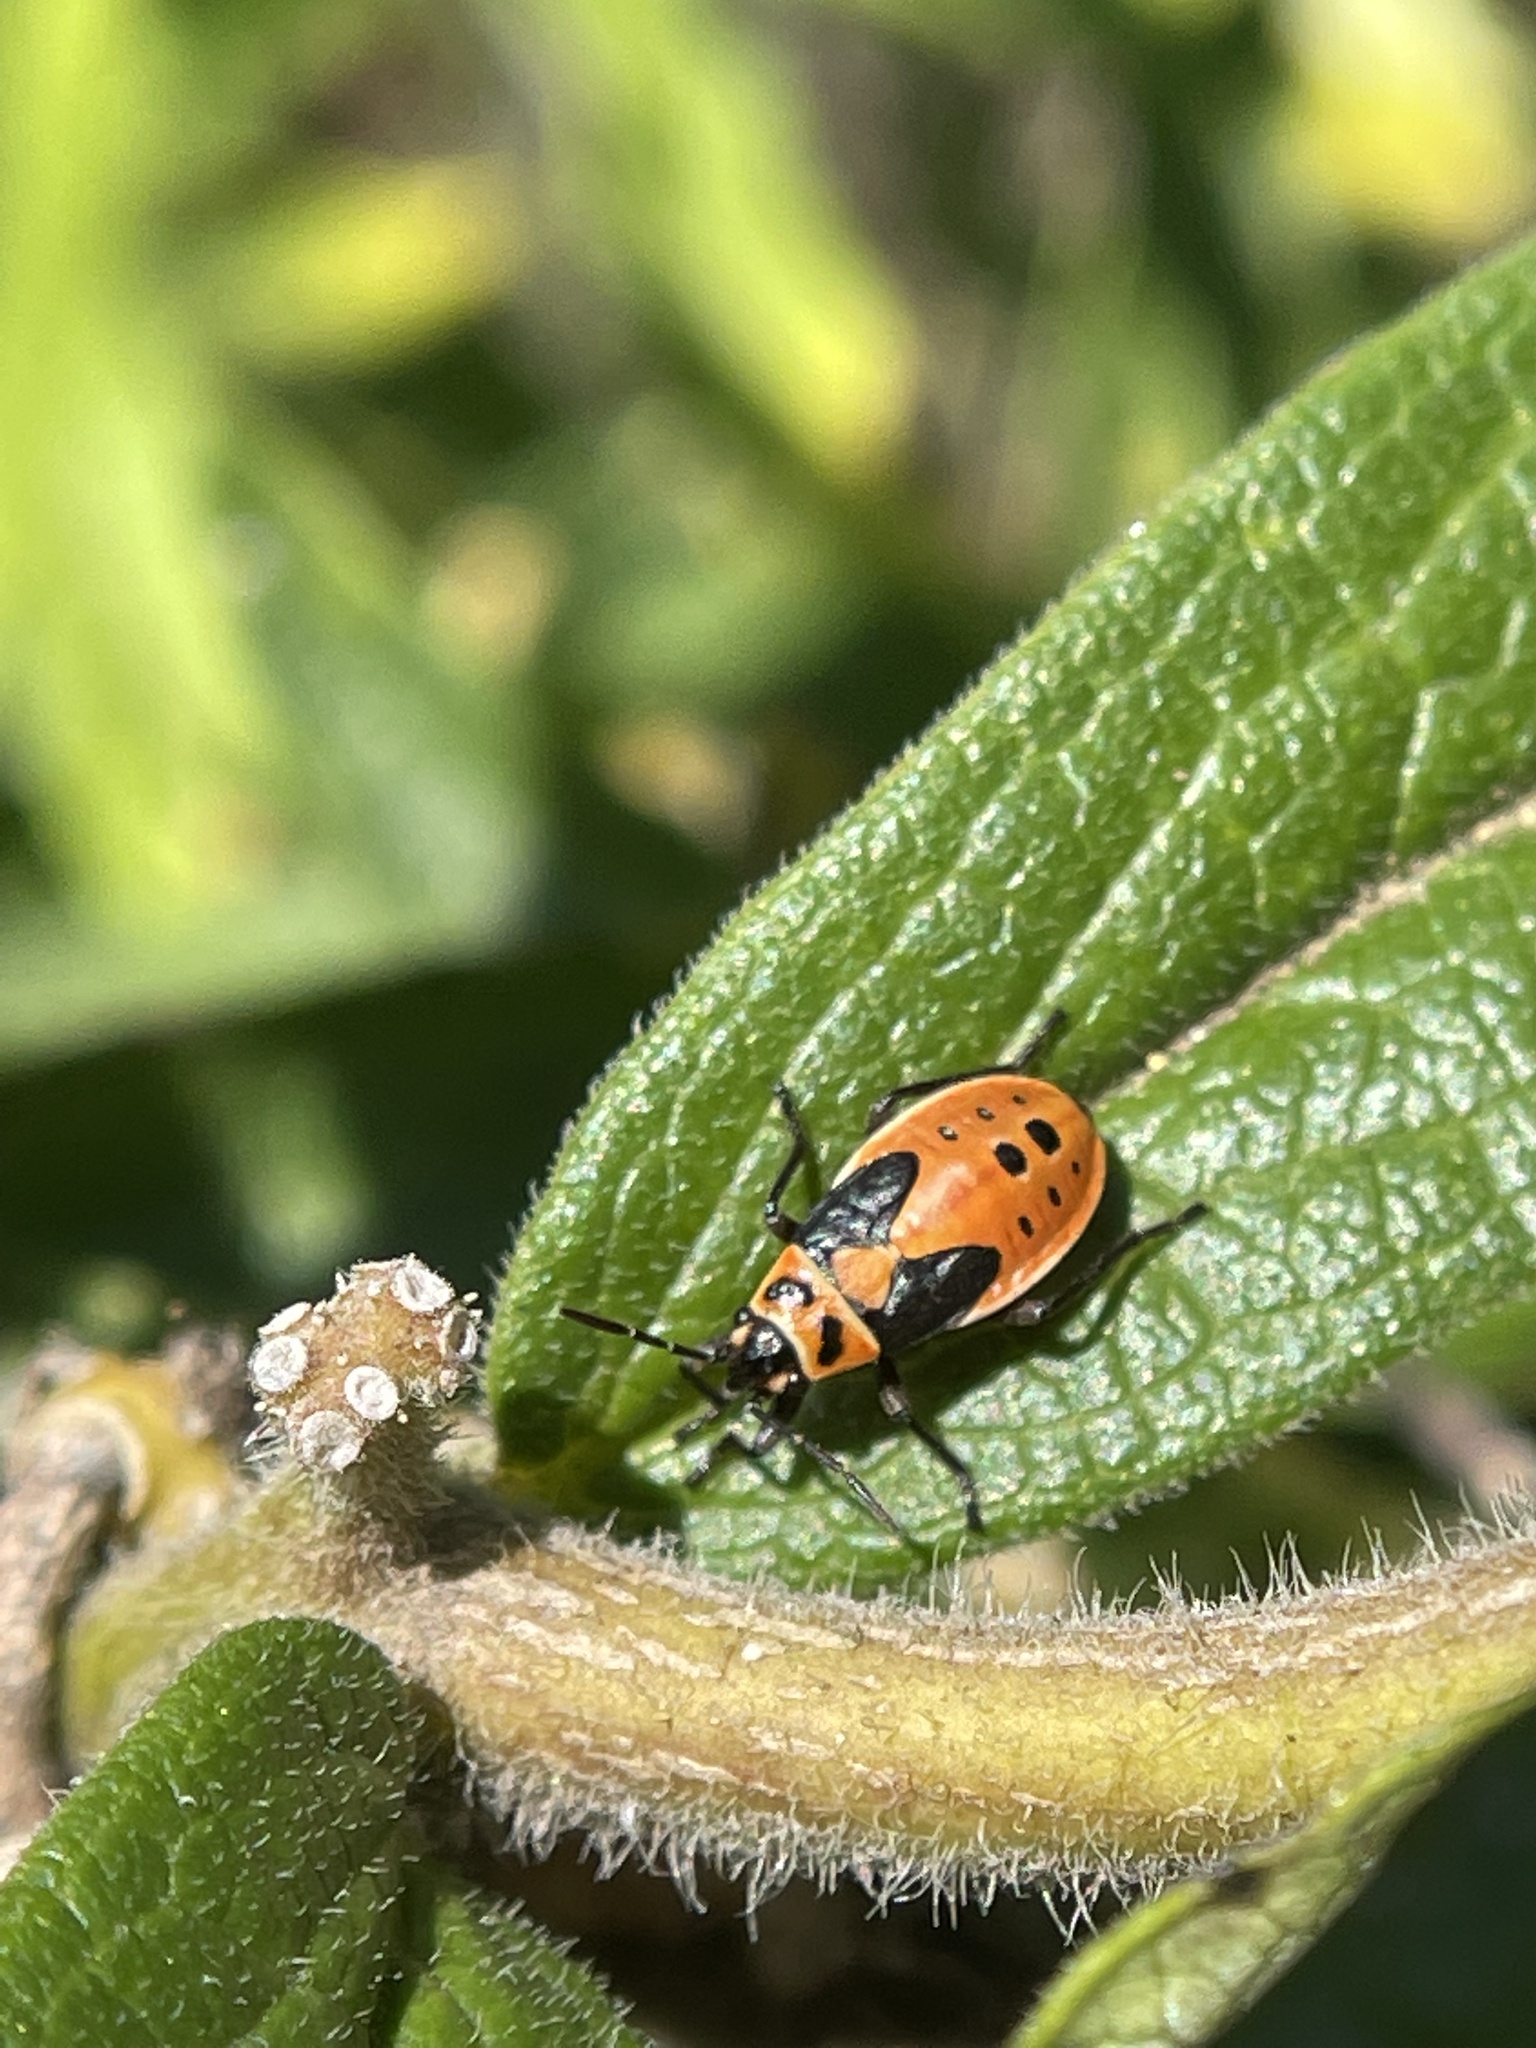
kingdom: Animalia
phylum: Arthropoda
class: Insecta
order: Hemiptera
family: Lygaeidae
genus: Lygaeus
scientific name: Lygaeus kalmii
